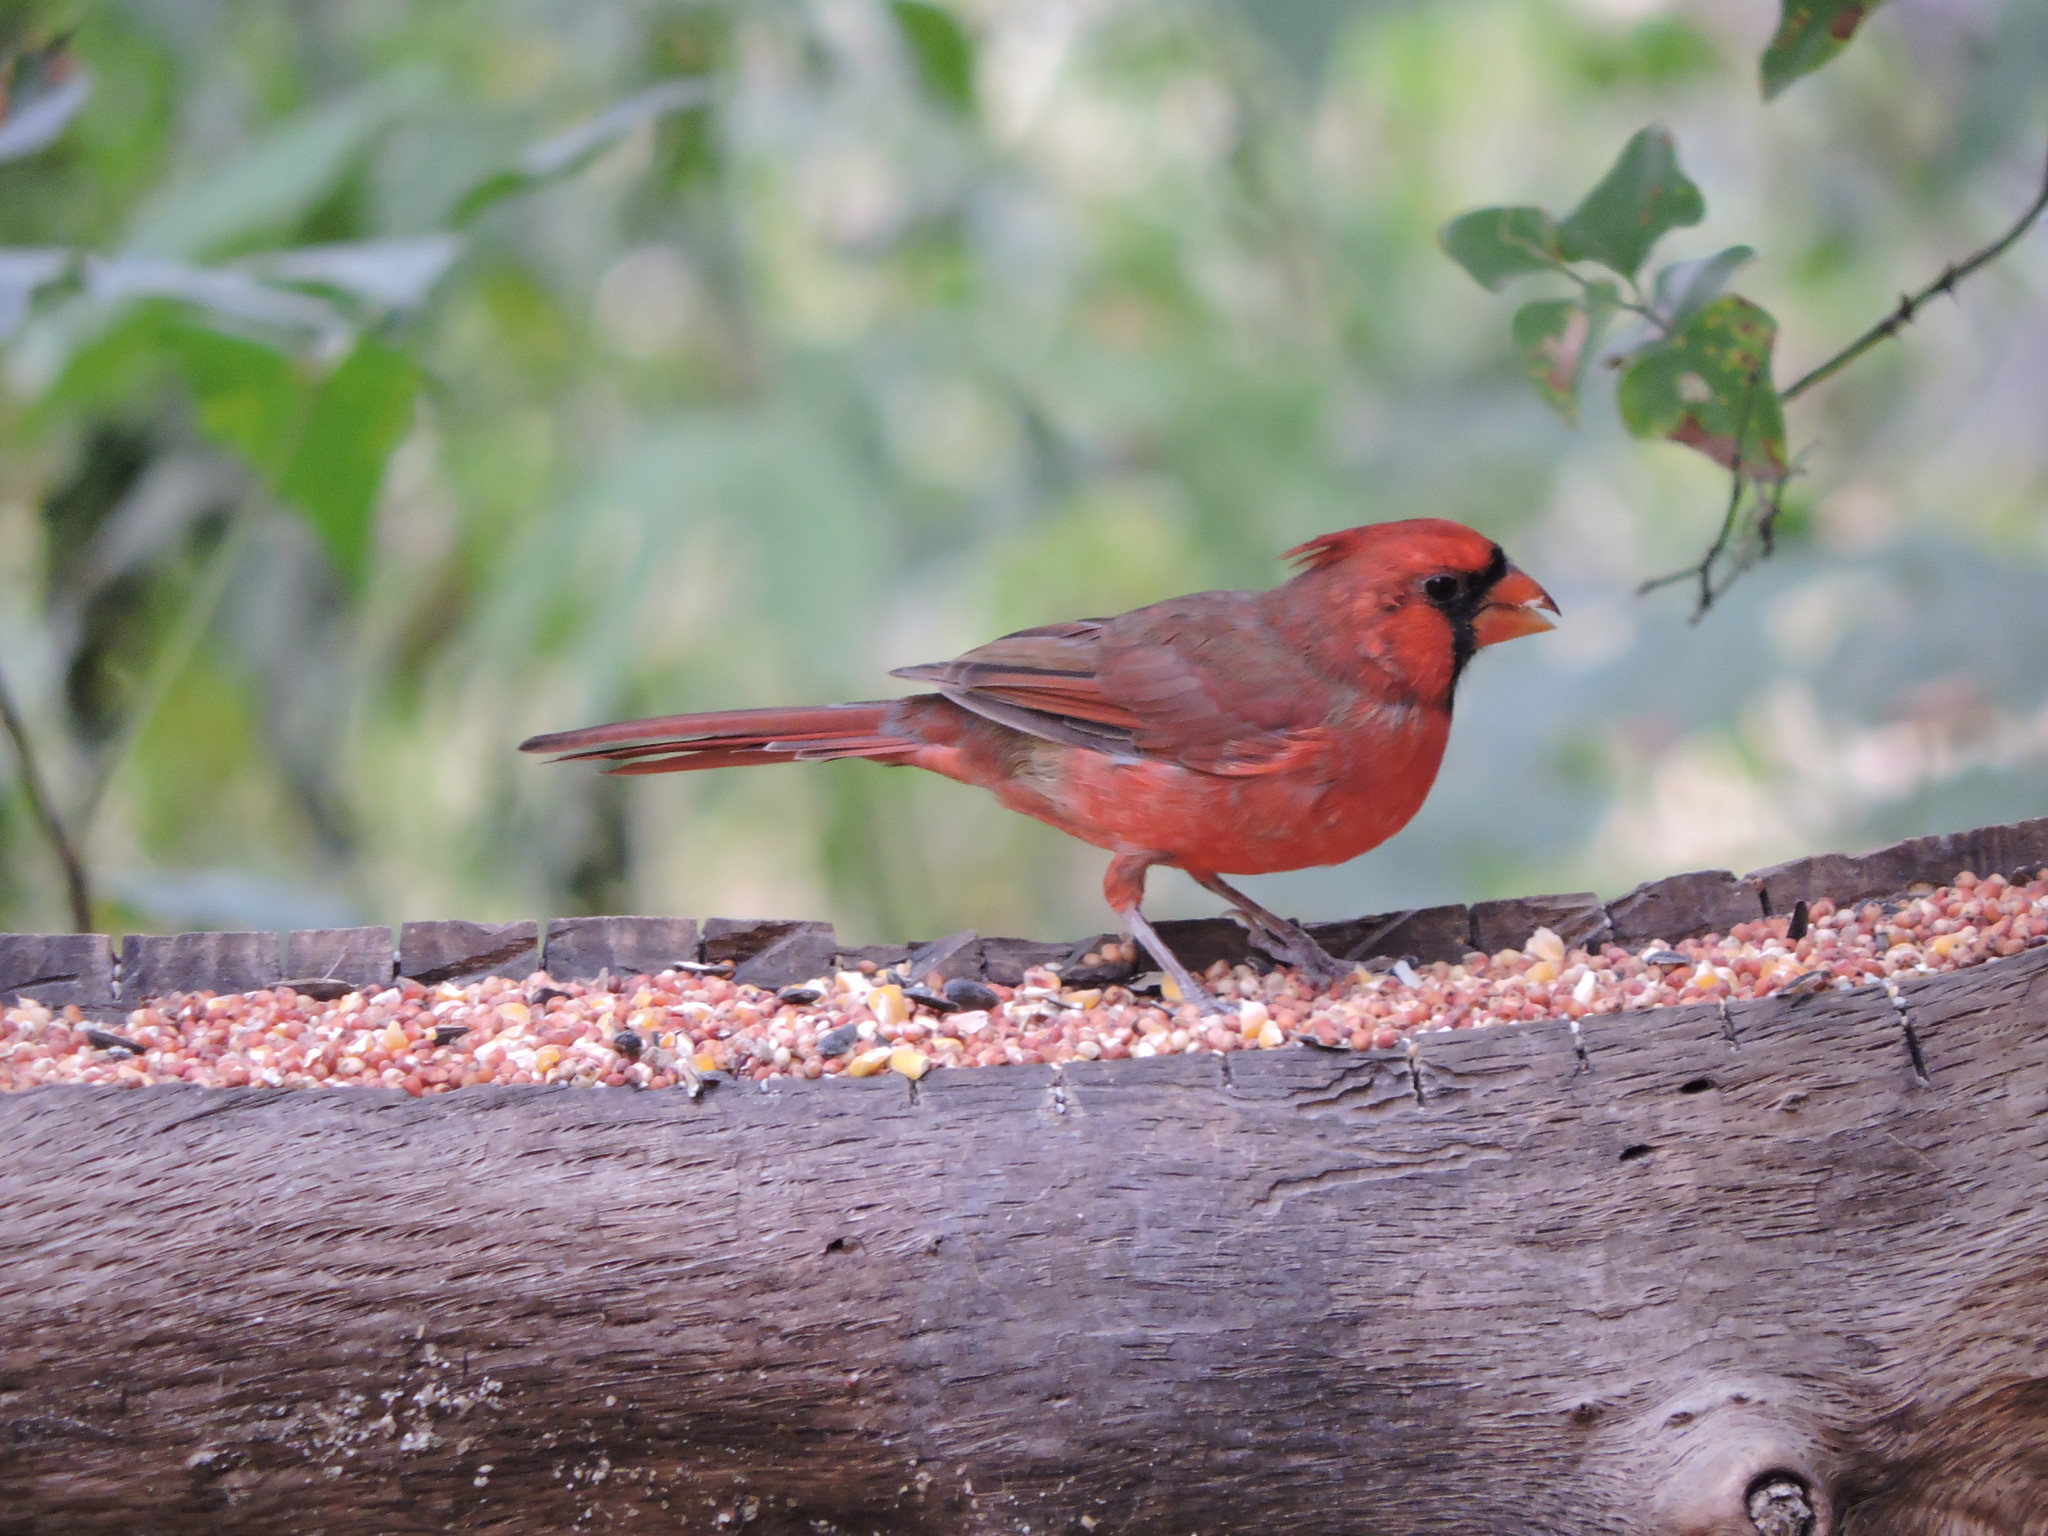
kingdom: Animalia
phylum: Chordata
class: Aves
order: Passeriformes
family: Cardinalidae
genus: Cardinalis
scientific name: Cardinalis cardinalis
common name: Northern cardinal
